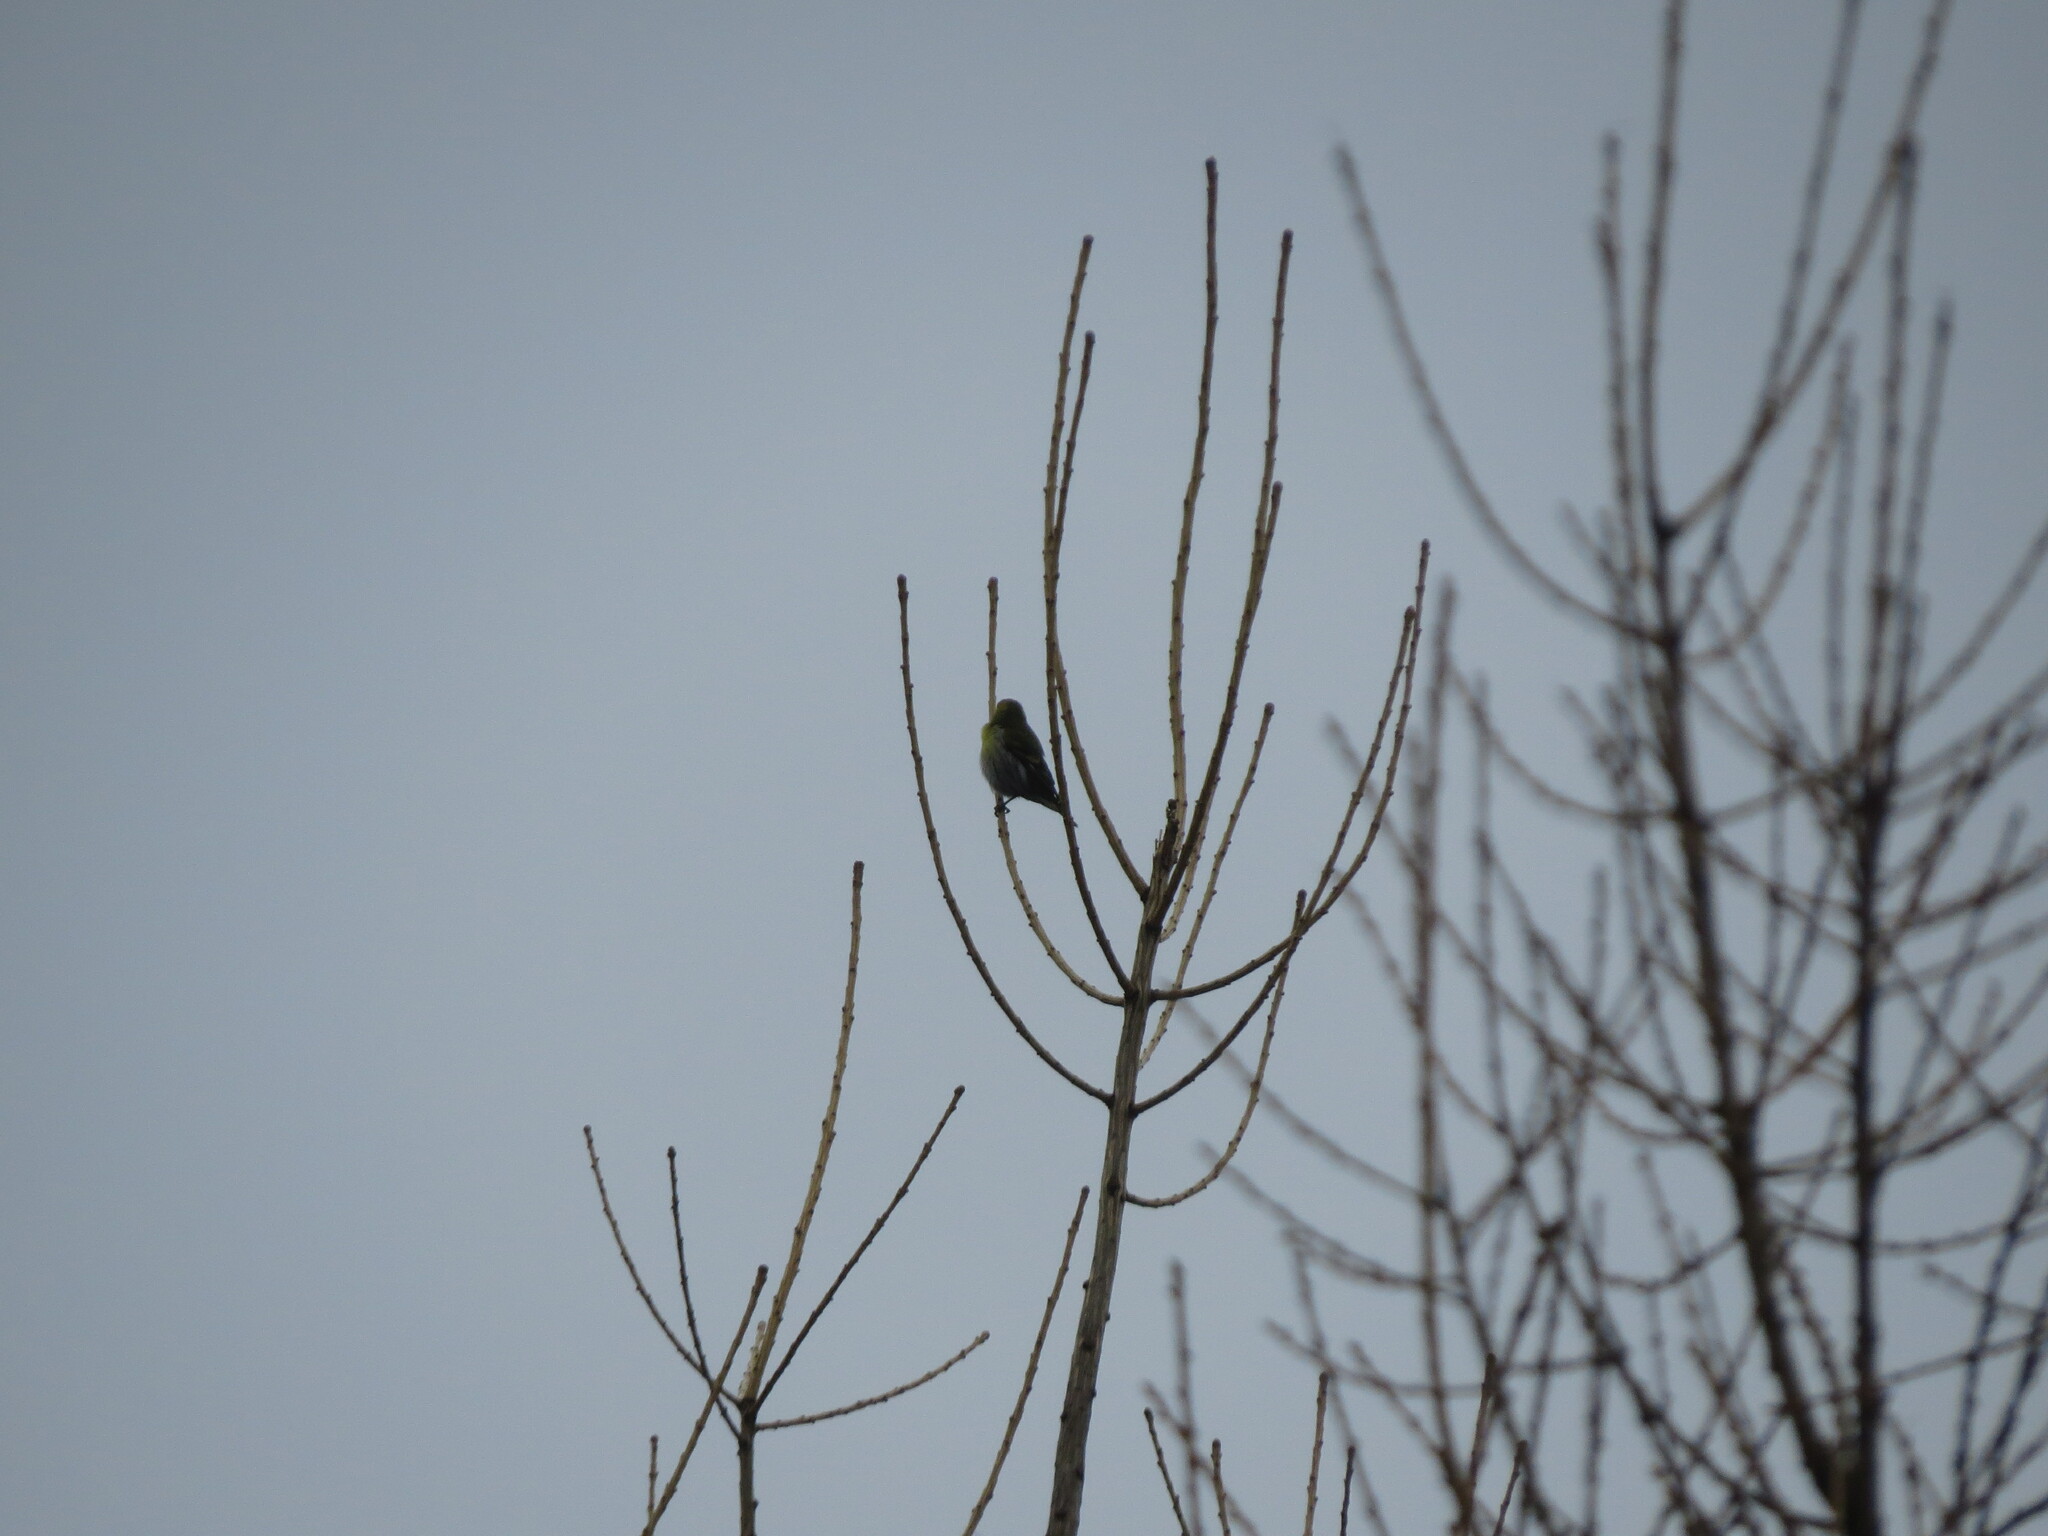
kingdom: Animalia
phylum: Chordata
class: Aves
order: Passeriformes
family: Fringillidae
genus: Spinus
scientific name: Spinus spinus
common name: Eurasian siskin
